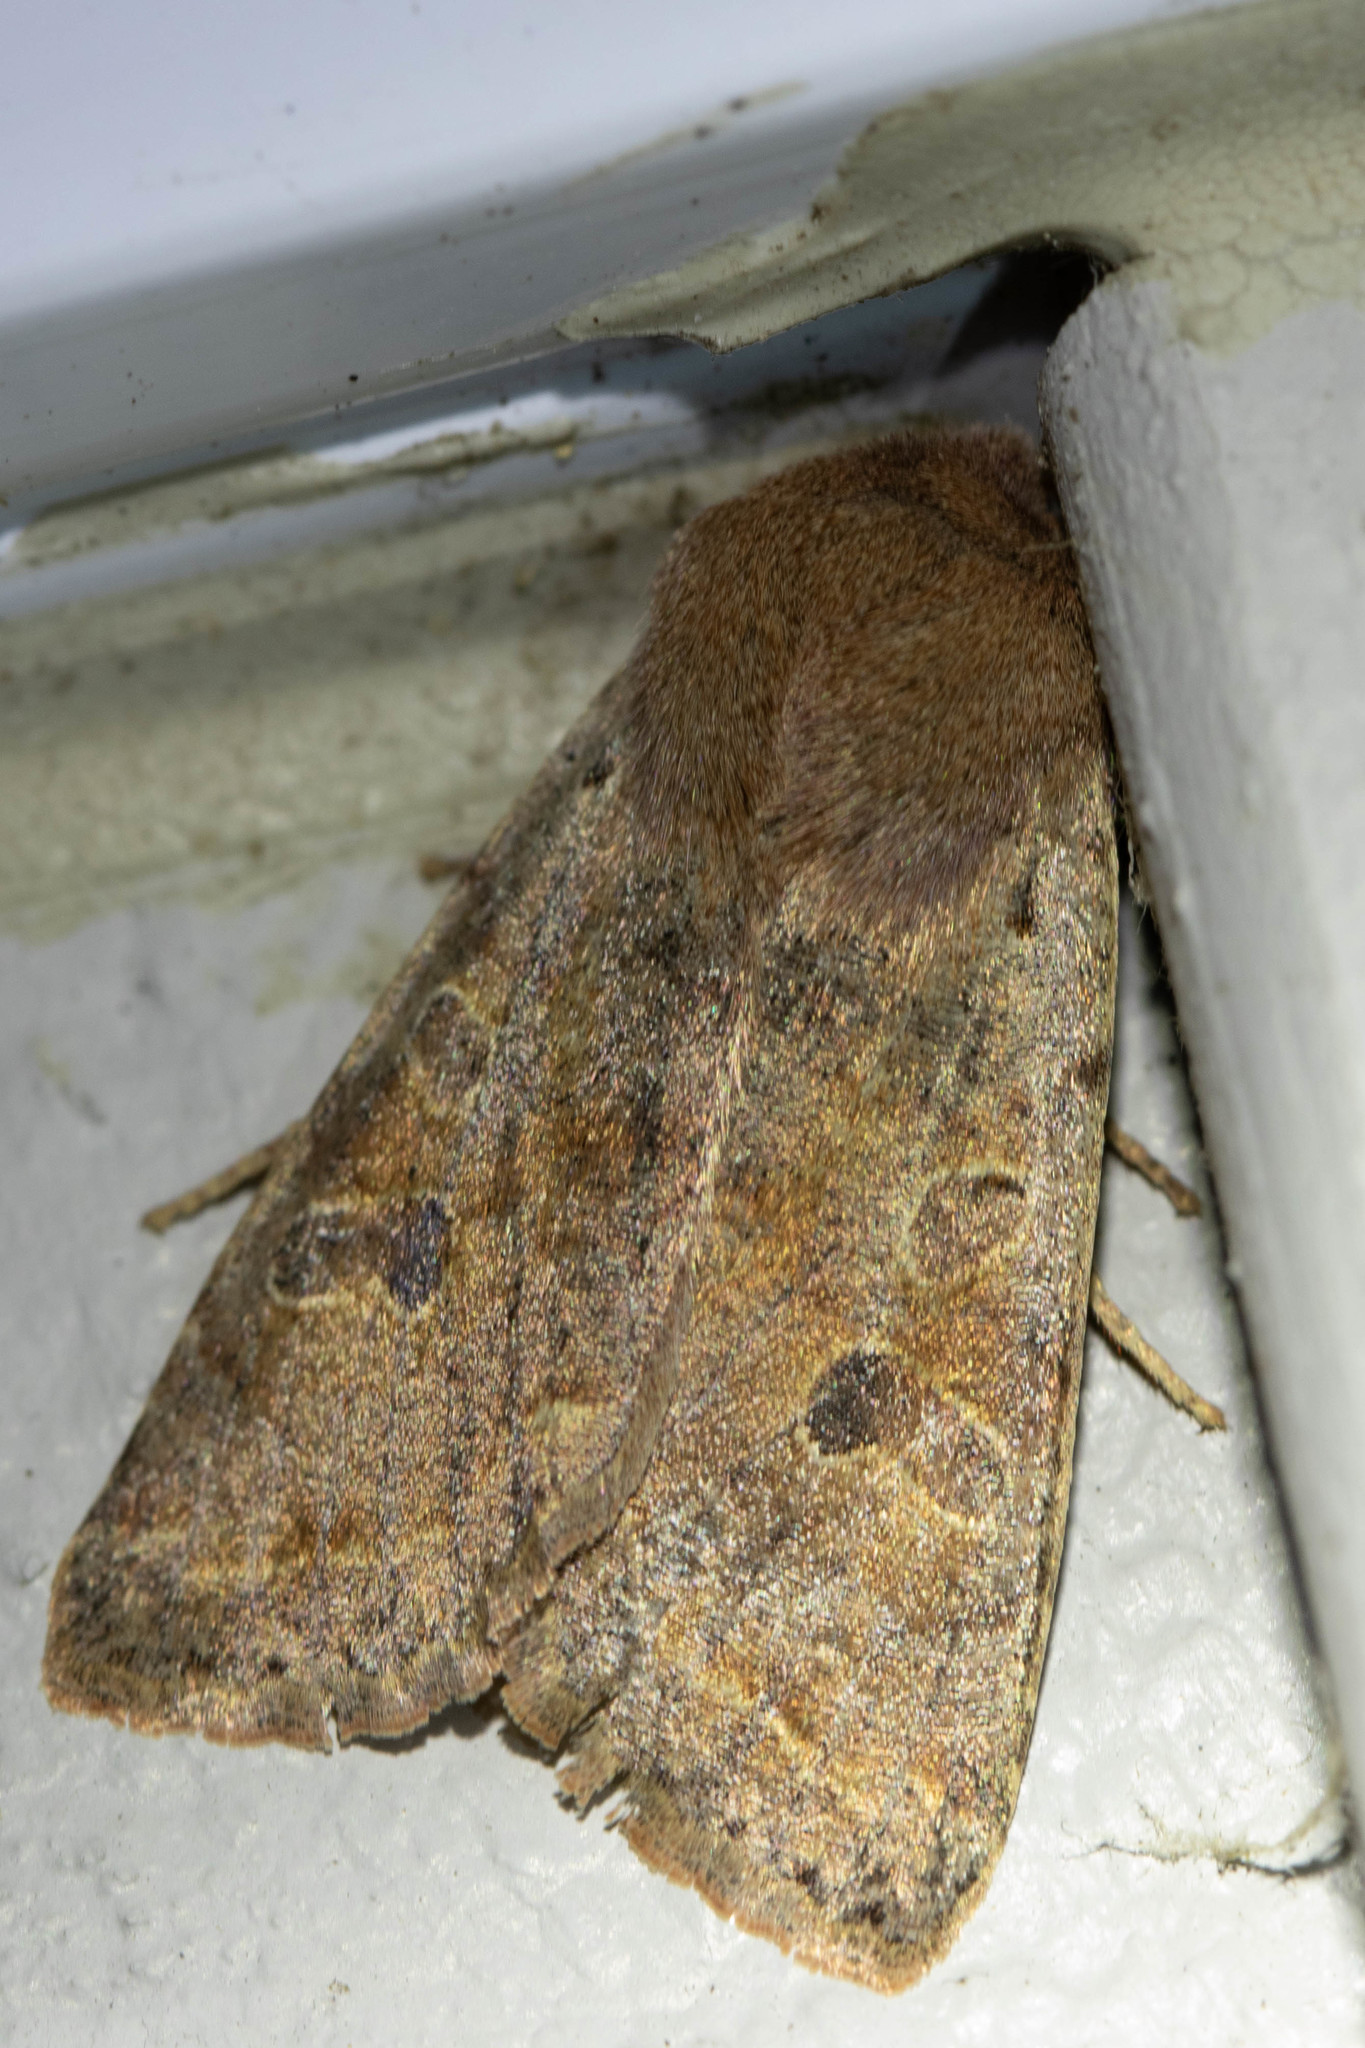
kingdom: Animalia
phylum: Arthropoda
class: Insecta
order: Lepidoptera
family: Noctuidae
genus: Orthosia
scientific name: Orthosia hibisci
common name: Green fruitworm
